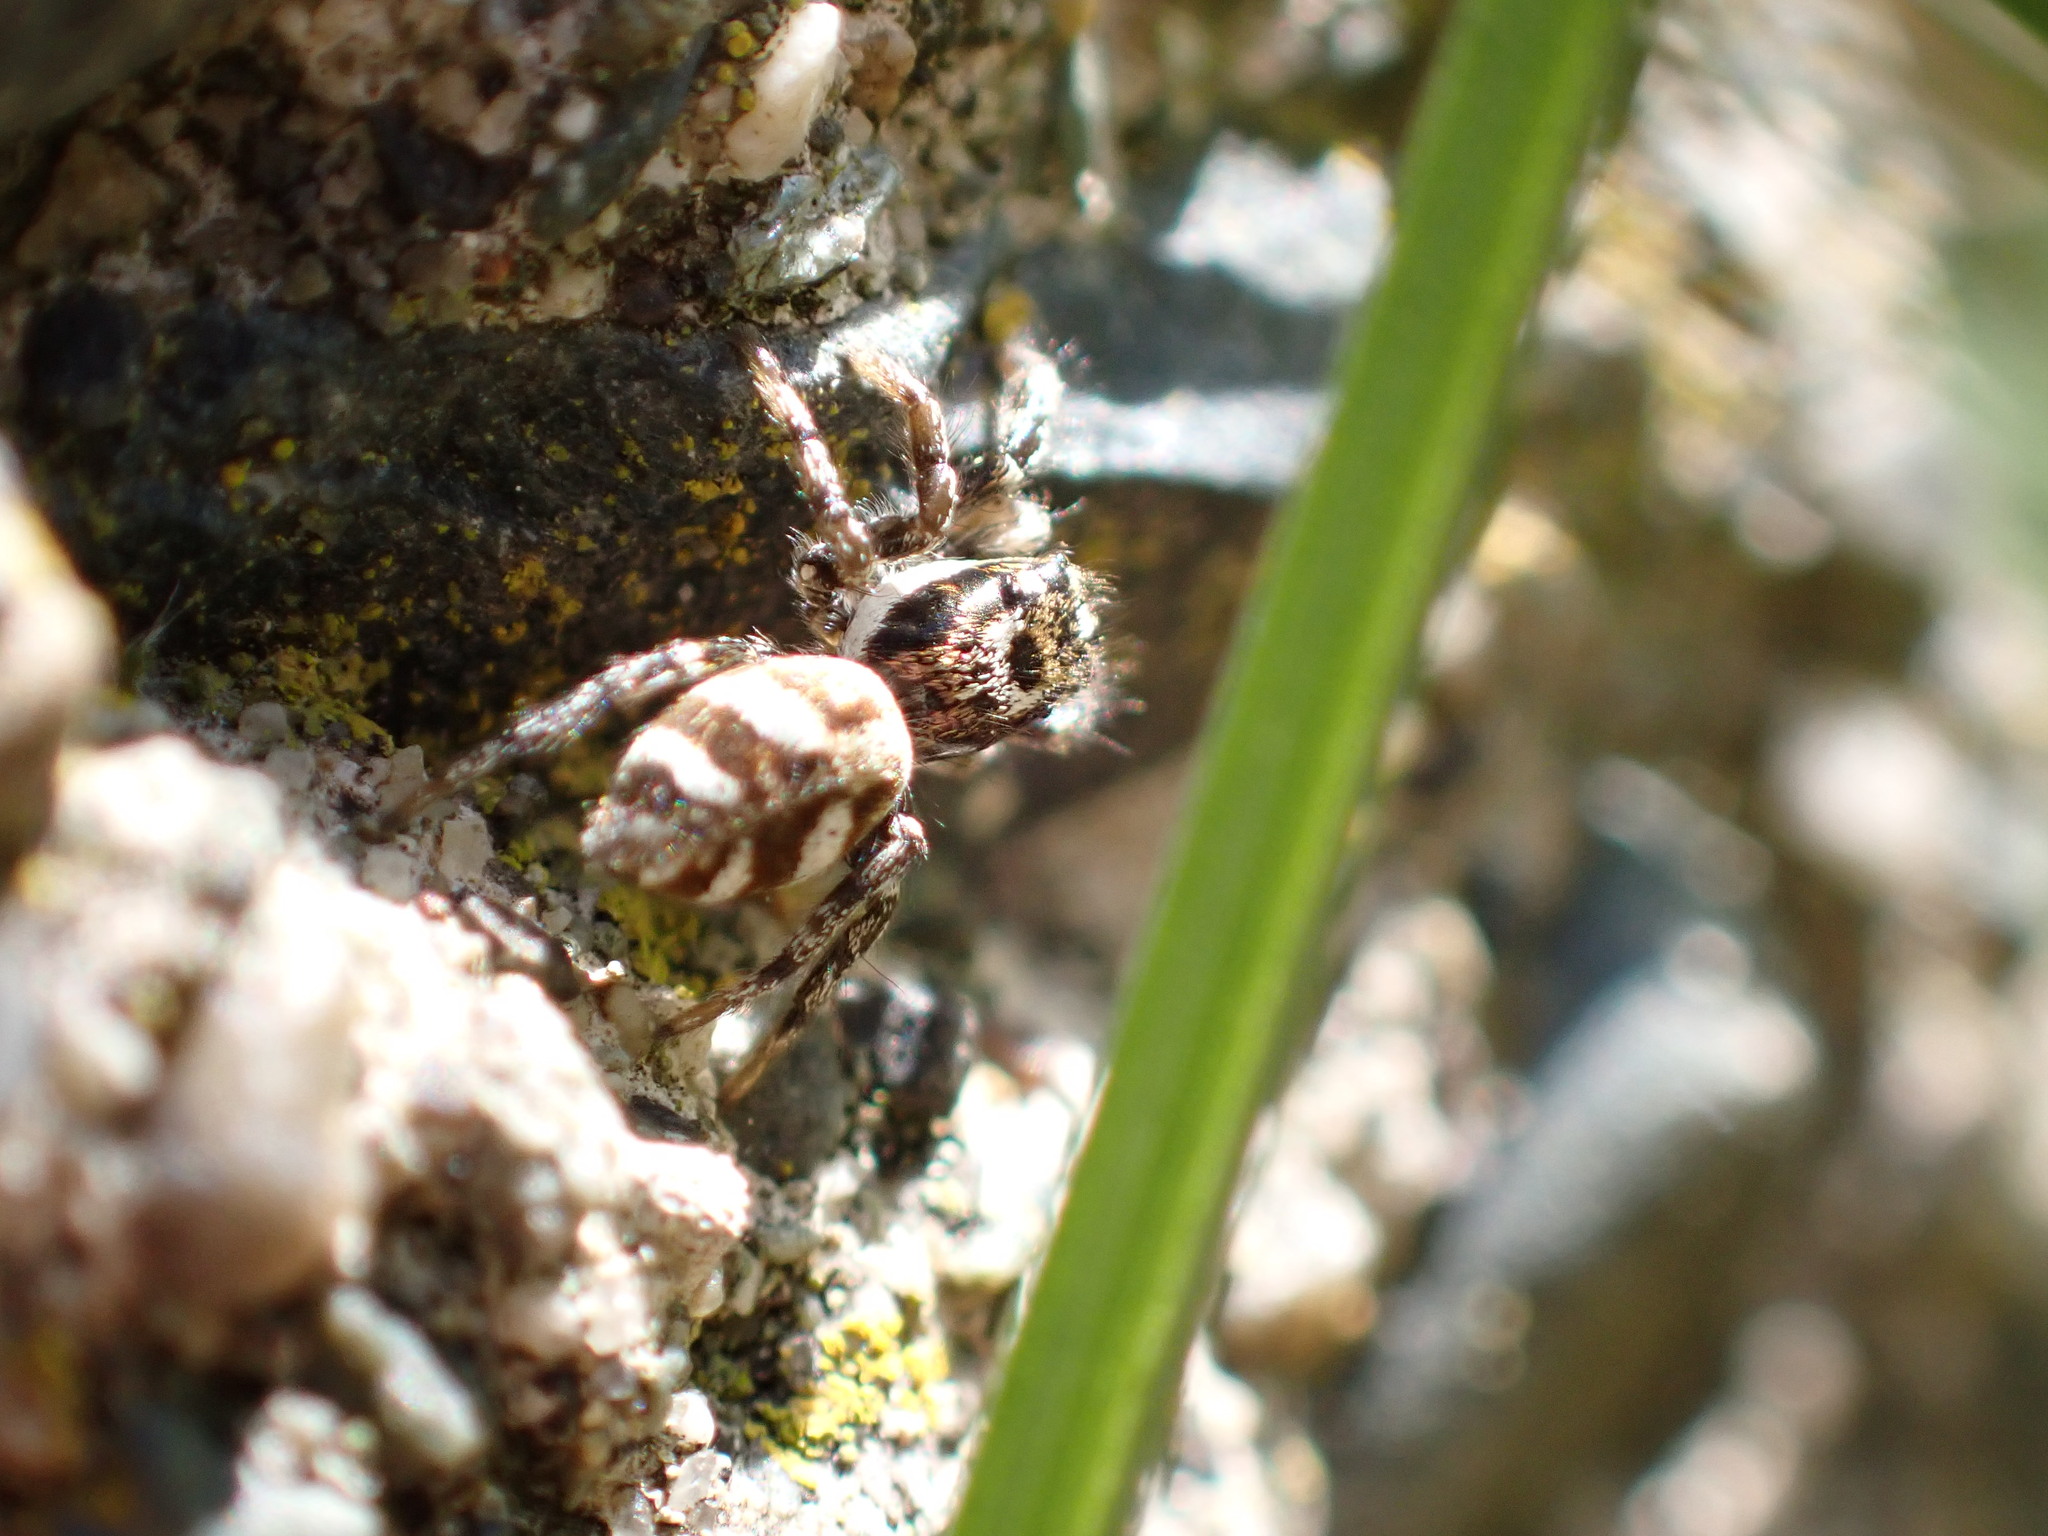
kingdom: Animalia
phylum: Arthropoda
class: Arachnida
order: Araneae
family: Salticidae
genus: Salticus
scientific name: Salticus scenicus
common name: Zebra jumper
